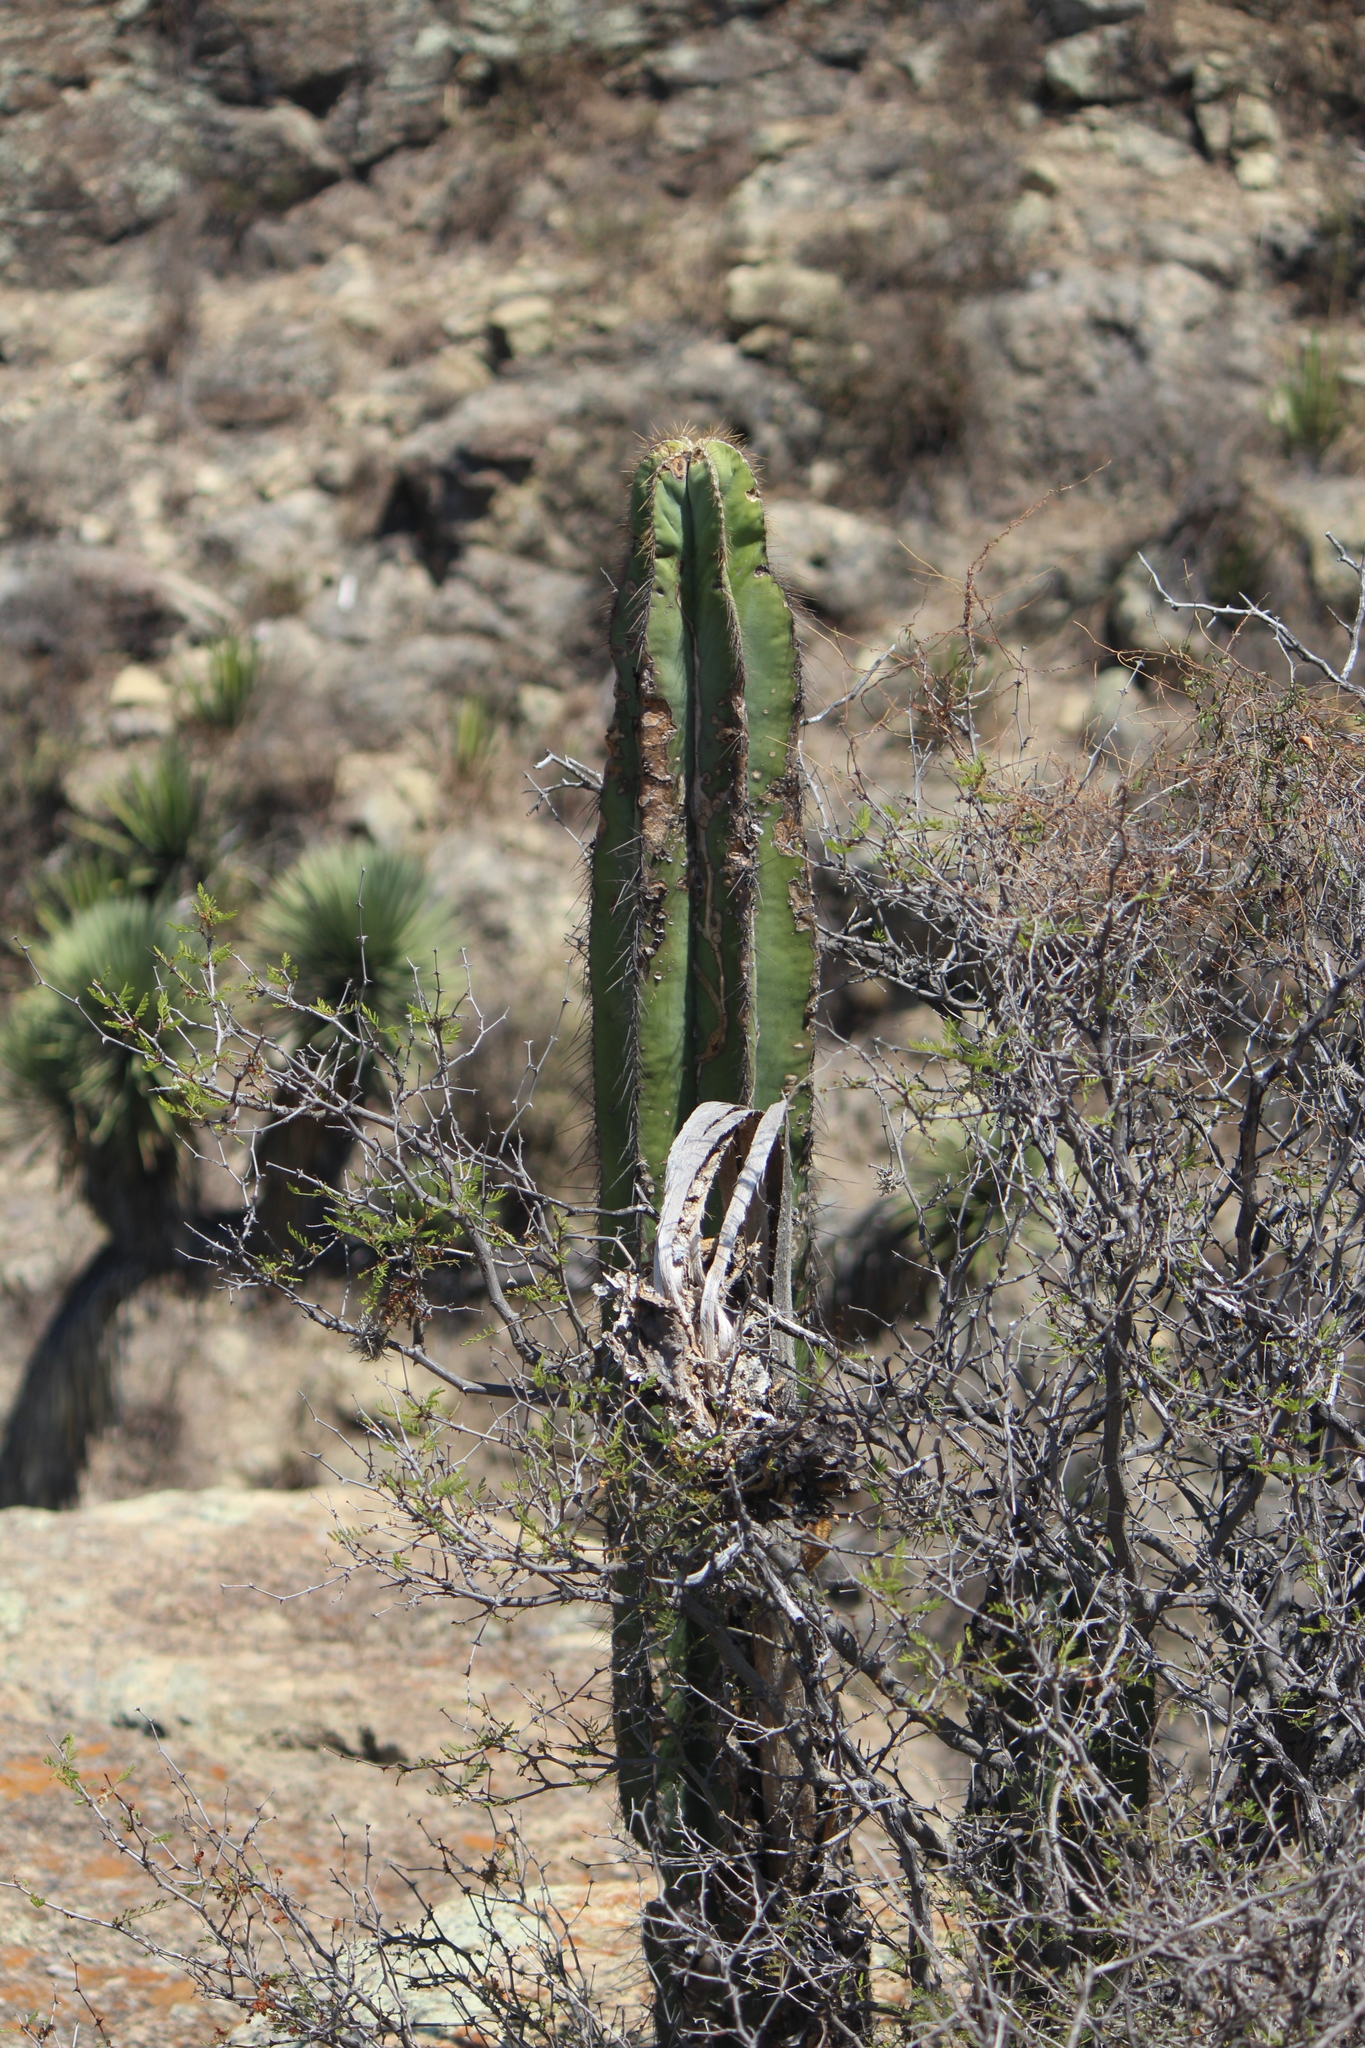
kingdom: Plantae
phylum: Tracheophyta
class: Magnoliopsida
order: Caryophyllales
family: Cactaceae
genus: Stenocereus
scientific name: Stenocereus dumortieri
